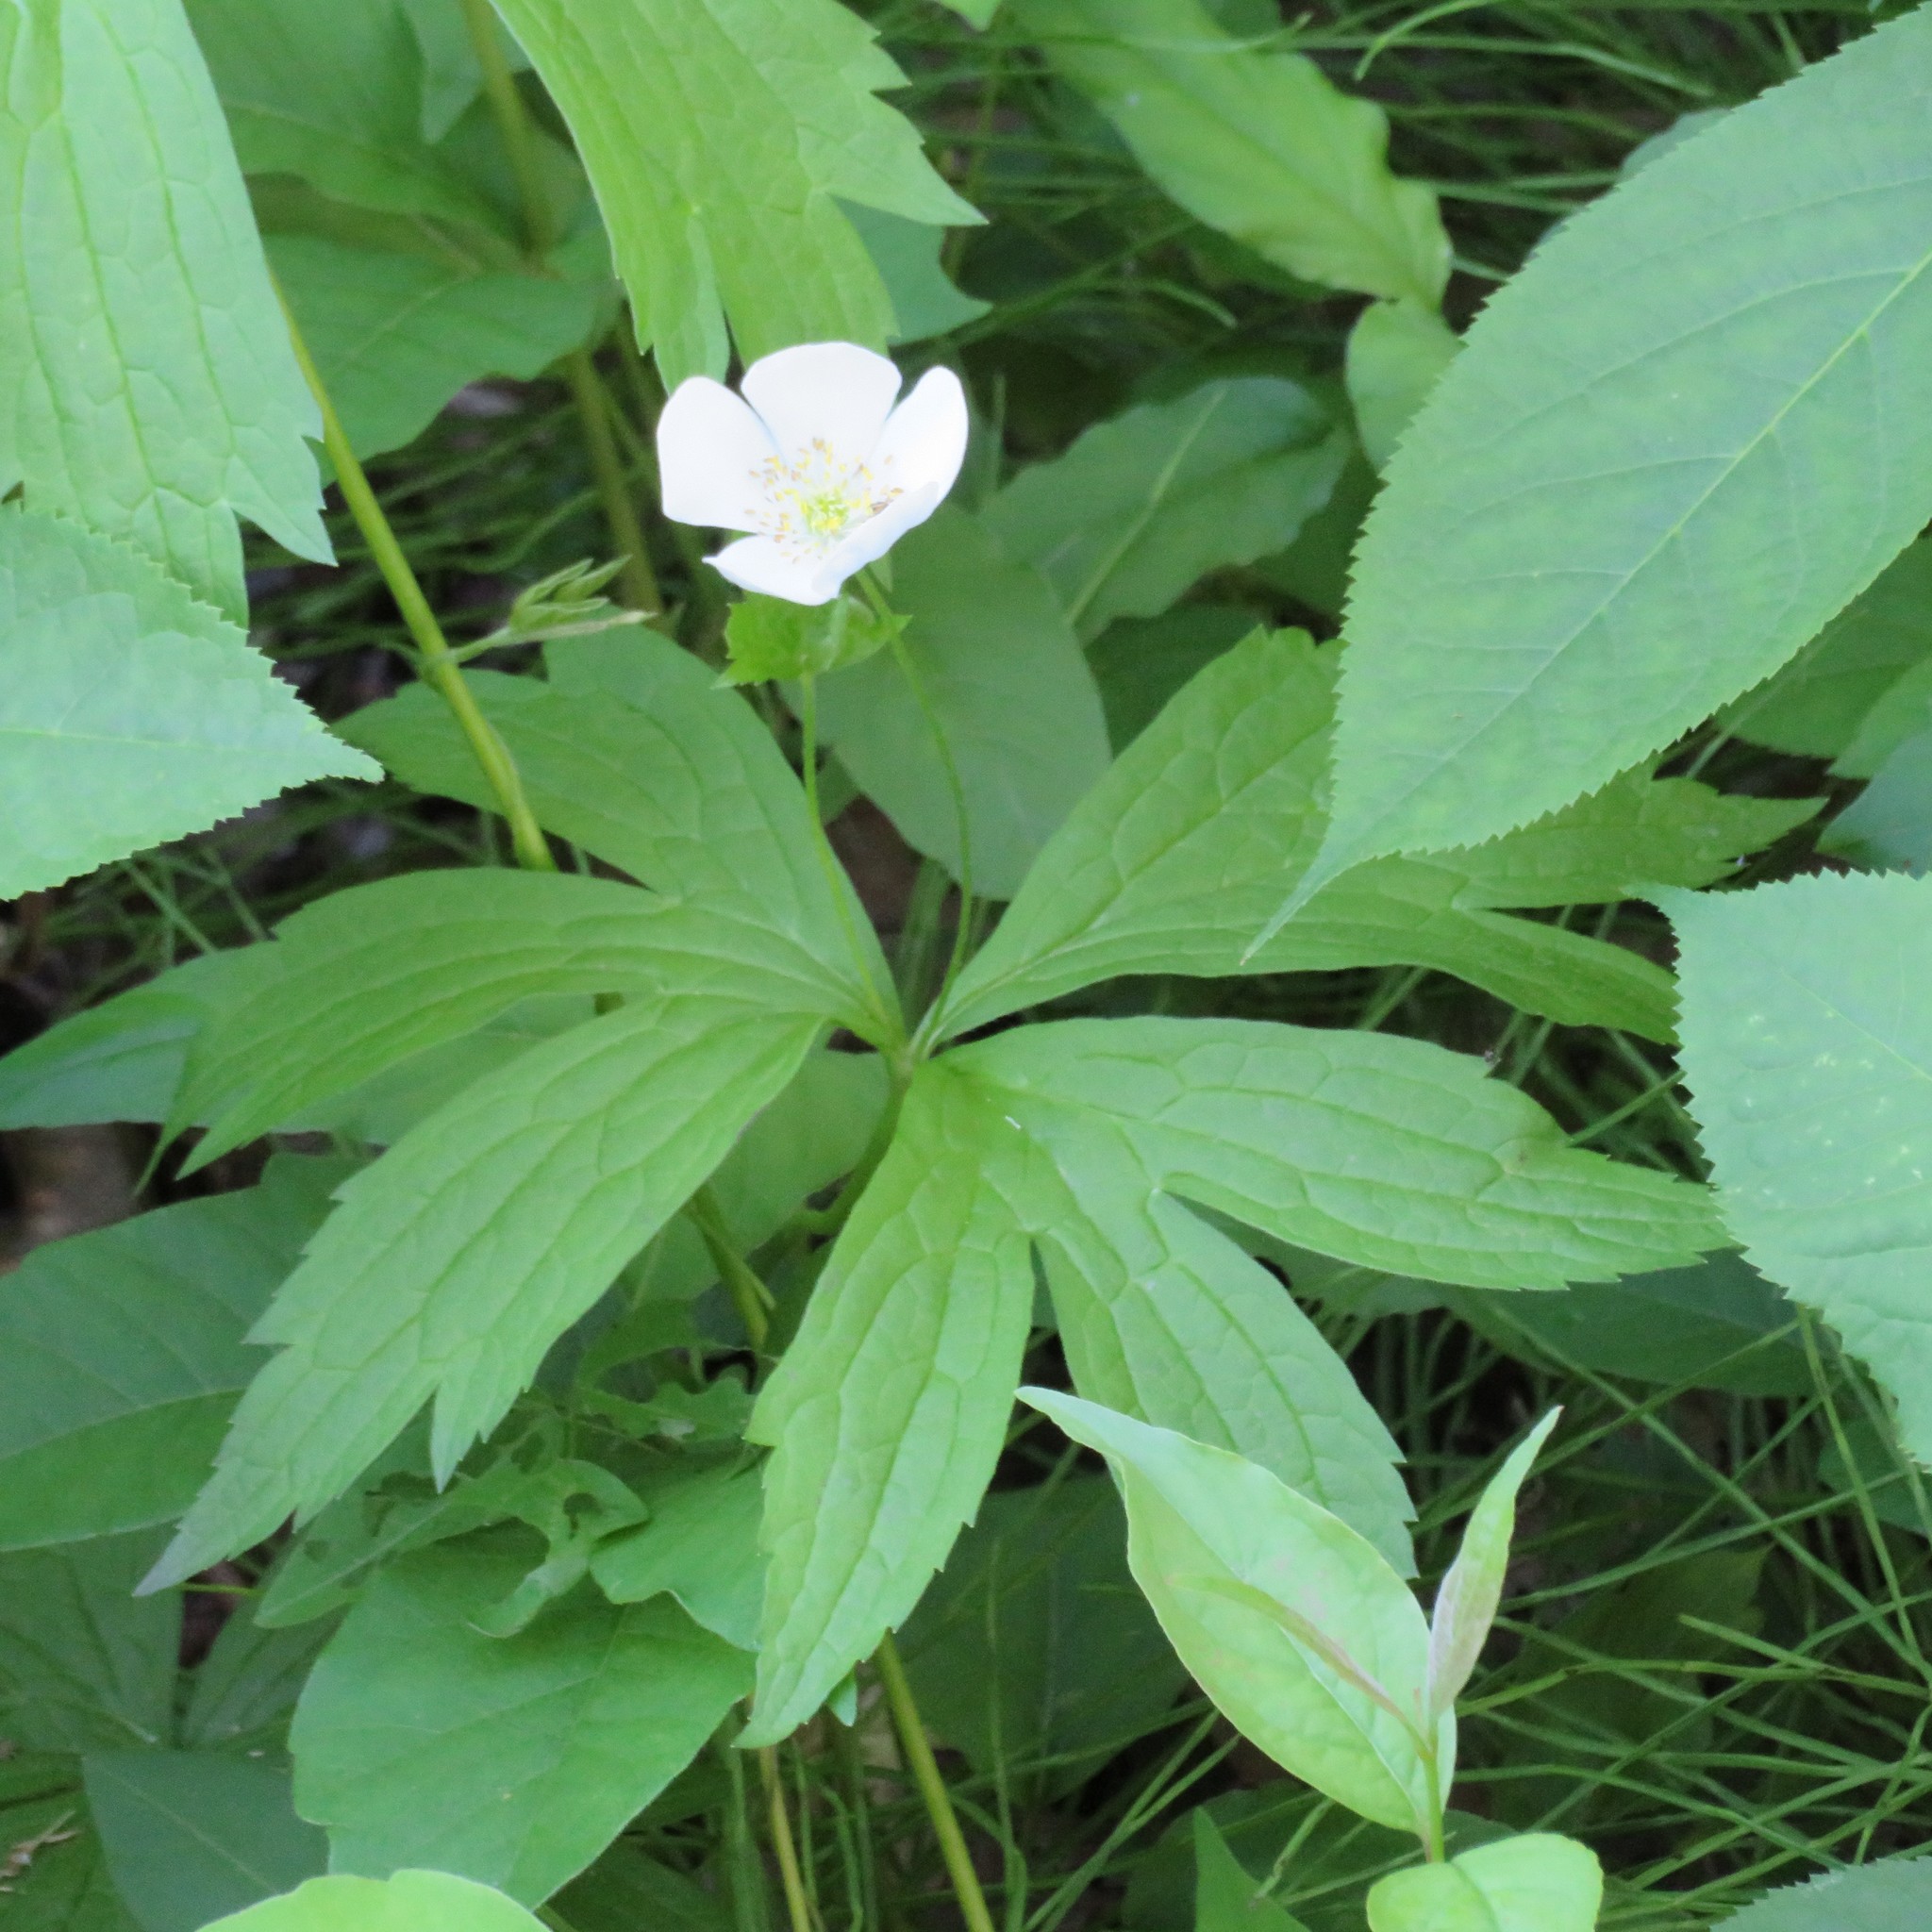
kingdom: Plantae
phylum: Tracheophyta
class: Magnoliopsida
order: Ranunculales
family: Ranunculaceae
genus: Anemonastrum
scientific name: Anemonastrum canadense
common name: Canada anemone
